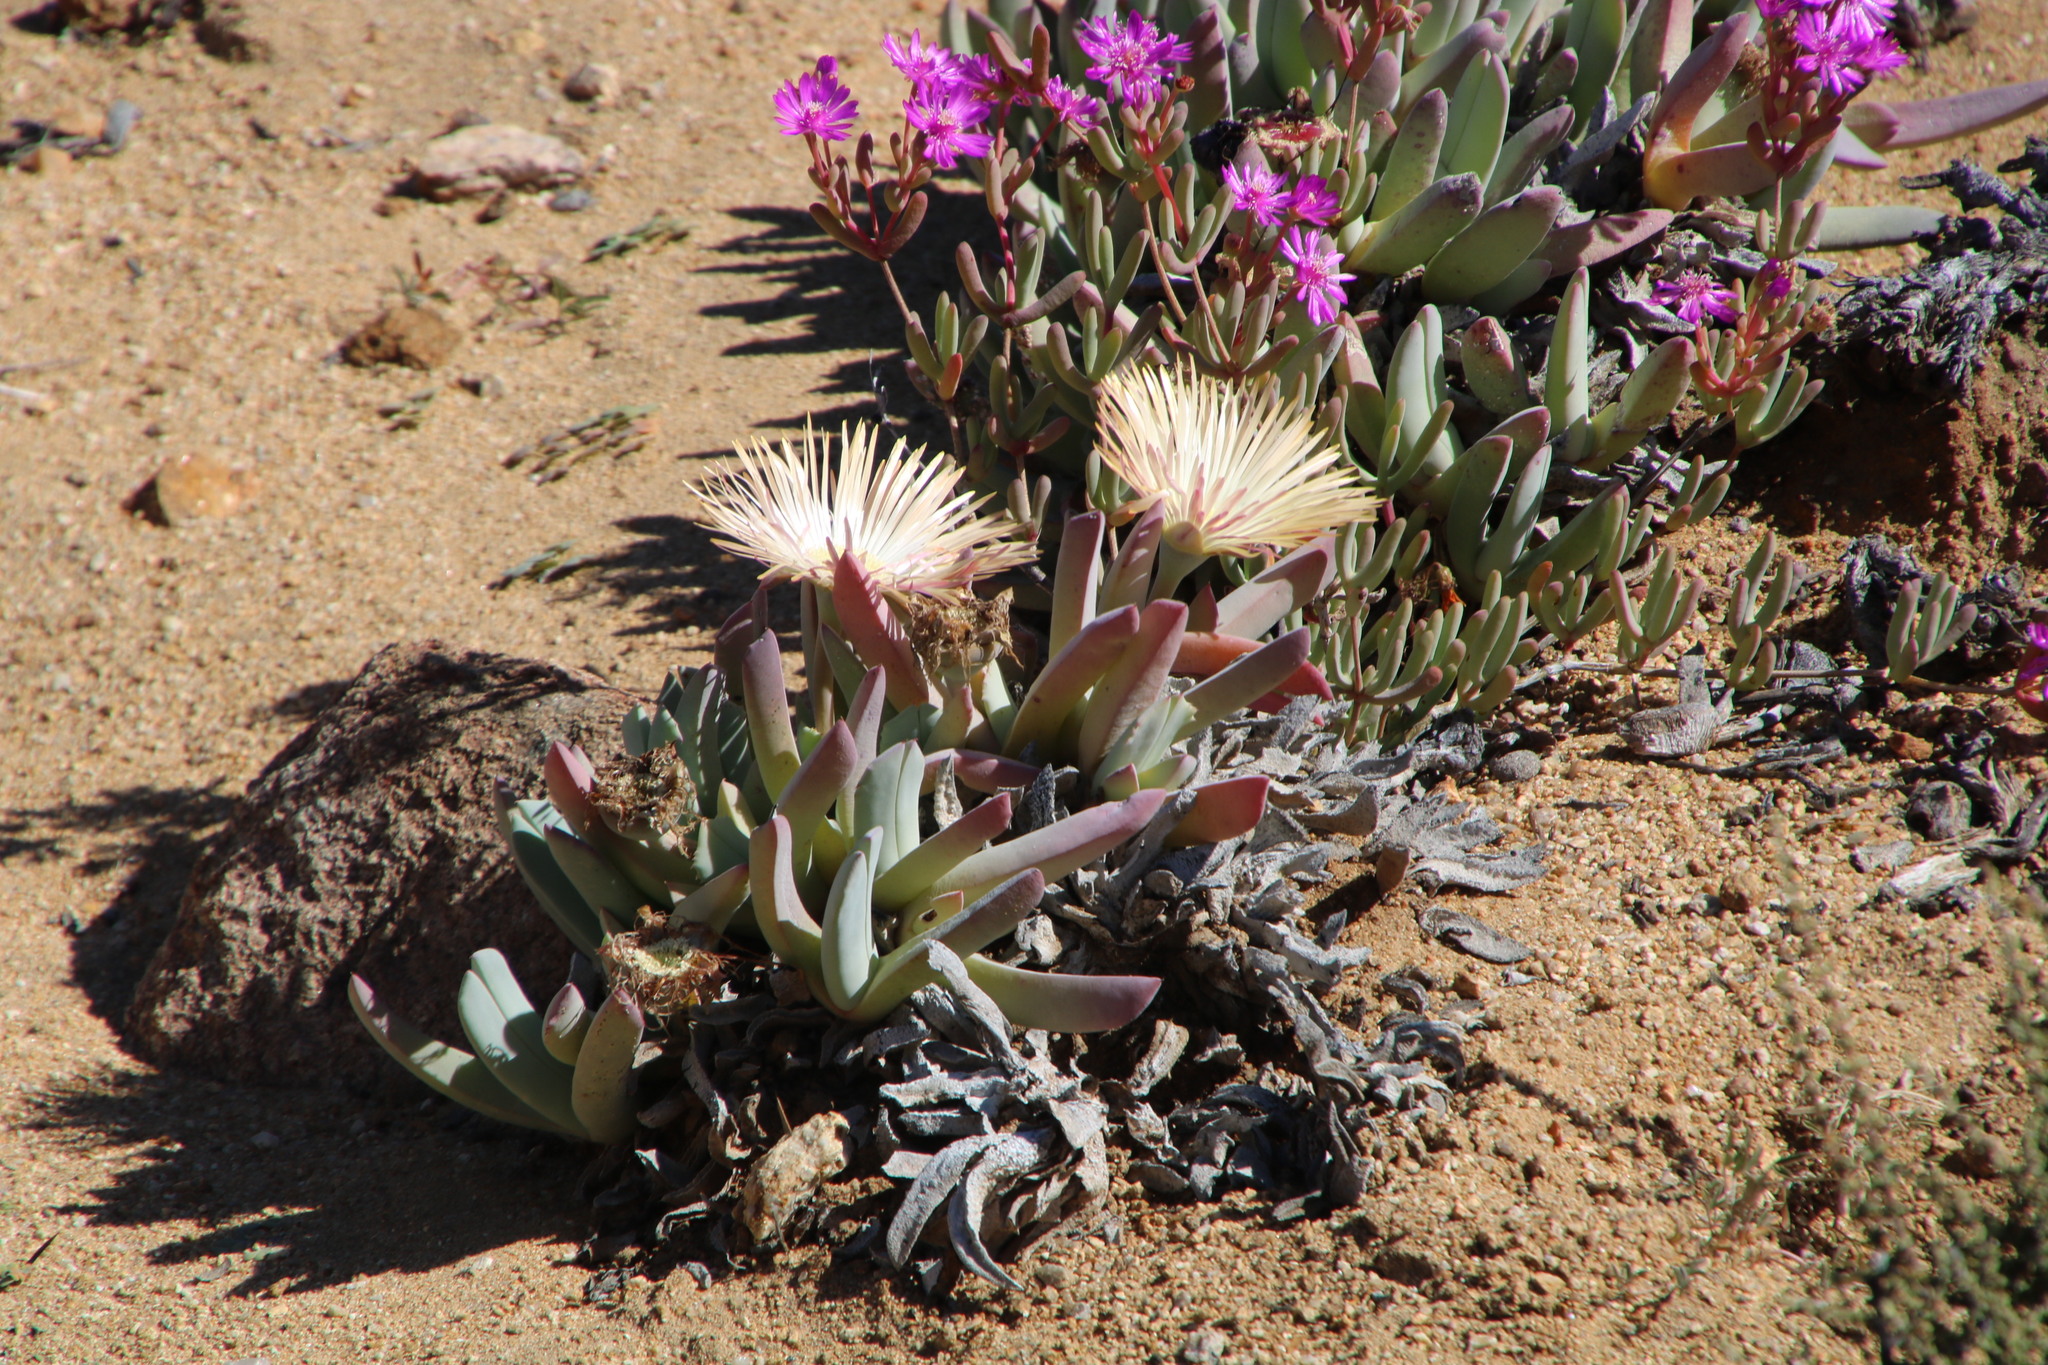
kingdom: Plantae
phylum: Tracheophyta
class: Magnoliopsida
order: Caryophyllales
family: Aizoaceae
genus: Cheiridopsis
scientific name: Cheiridopsis denticulata
